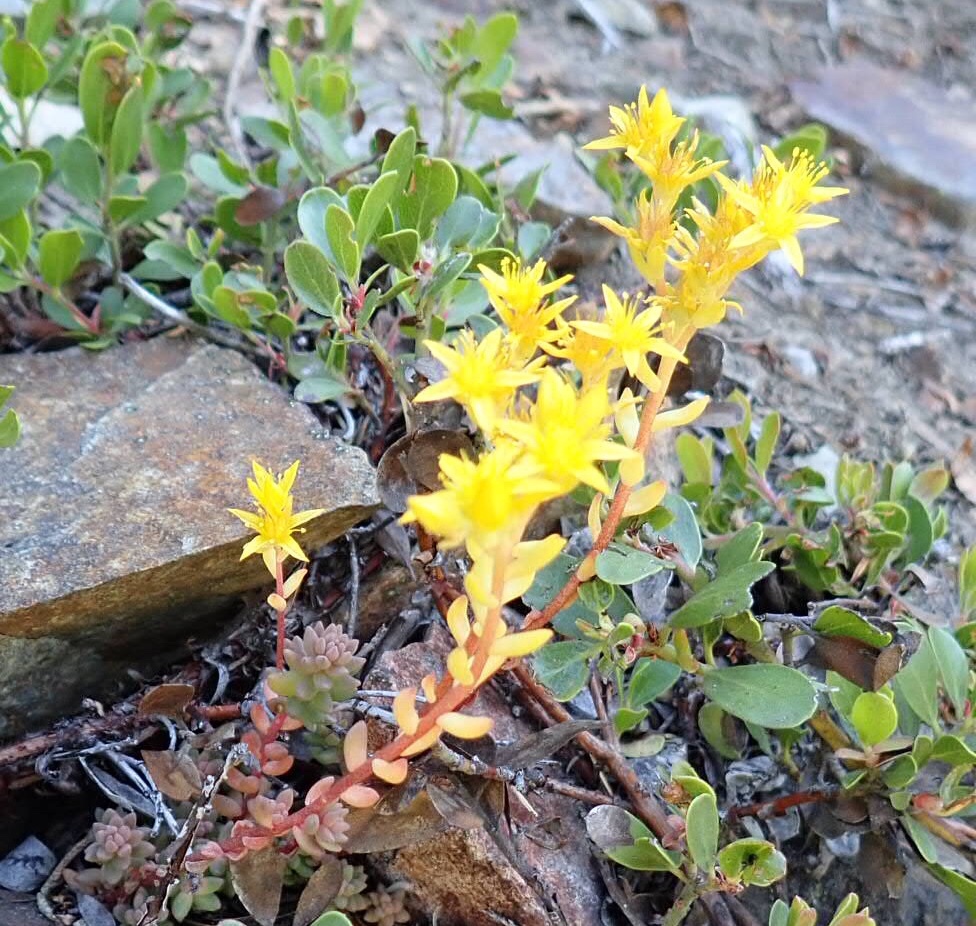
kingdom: Plantae
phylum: Tracheophyta
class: Magnoliopsida
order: Saxifragales
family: Crassulaceae
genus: Sedum
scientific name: Sedum rupicola
